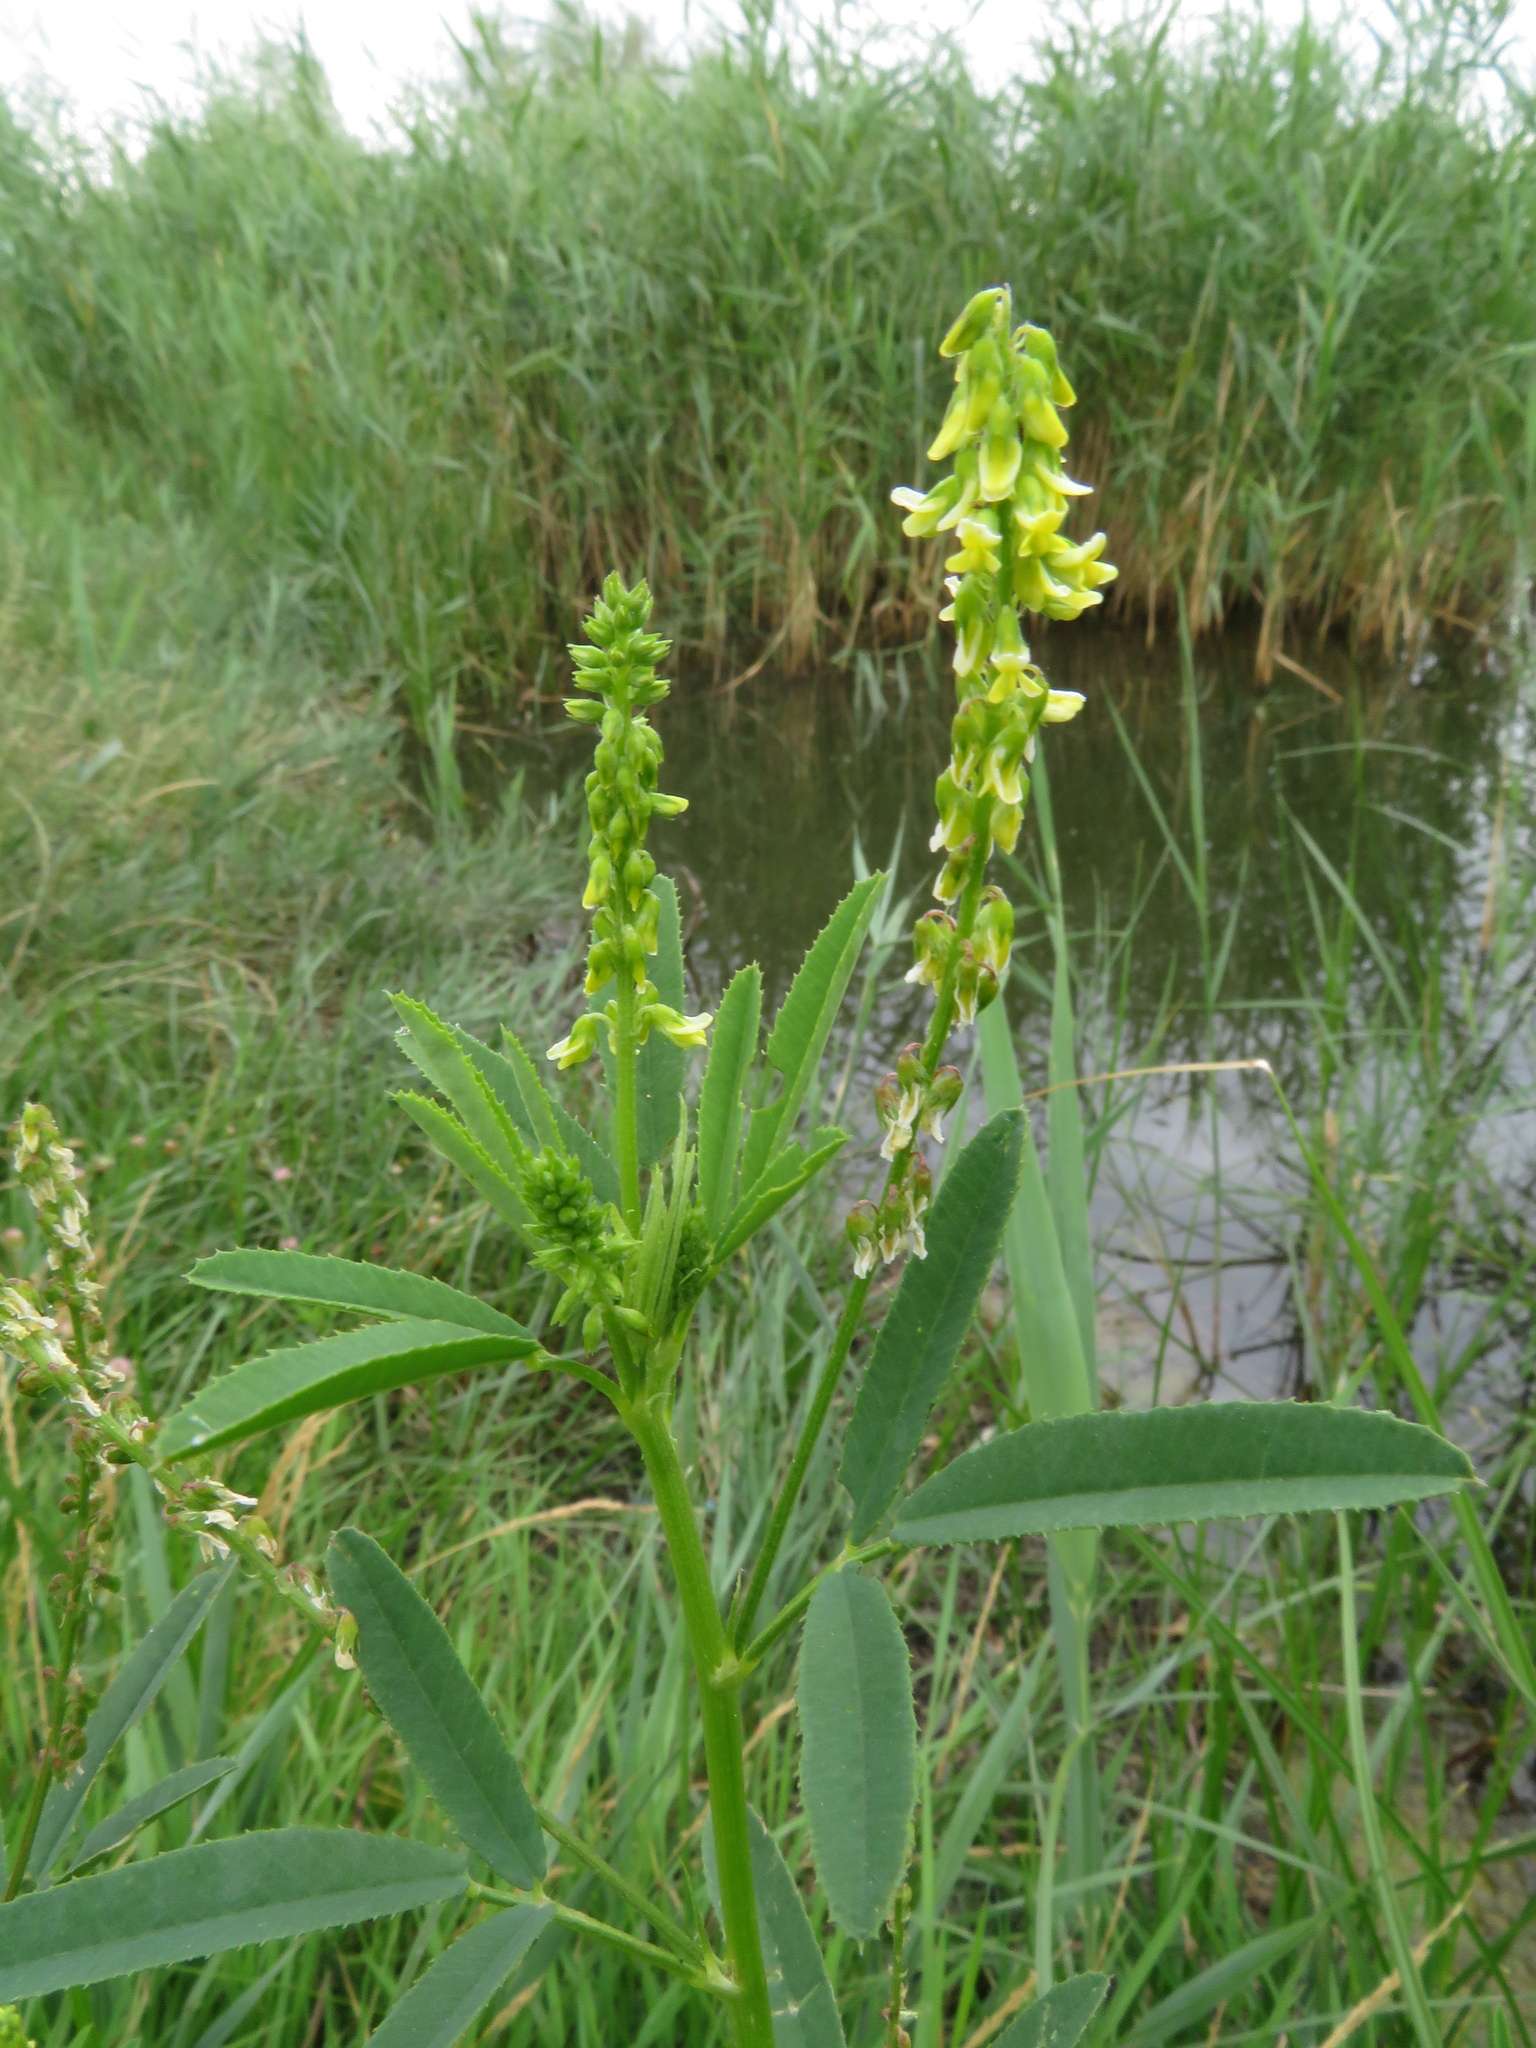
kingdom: Plantae
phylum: Tracheophyta
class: Magnoliopsida
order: Fabales
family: Fabaceae
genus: Melilotus
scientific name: Melilotus dentatus
